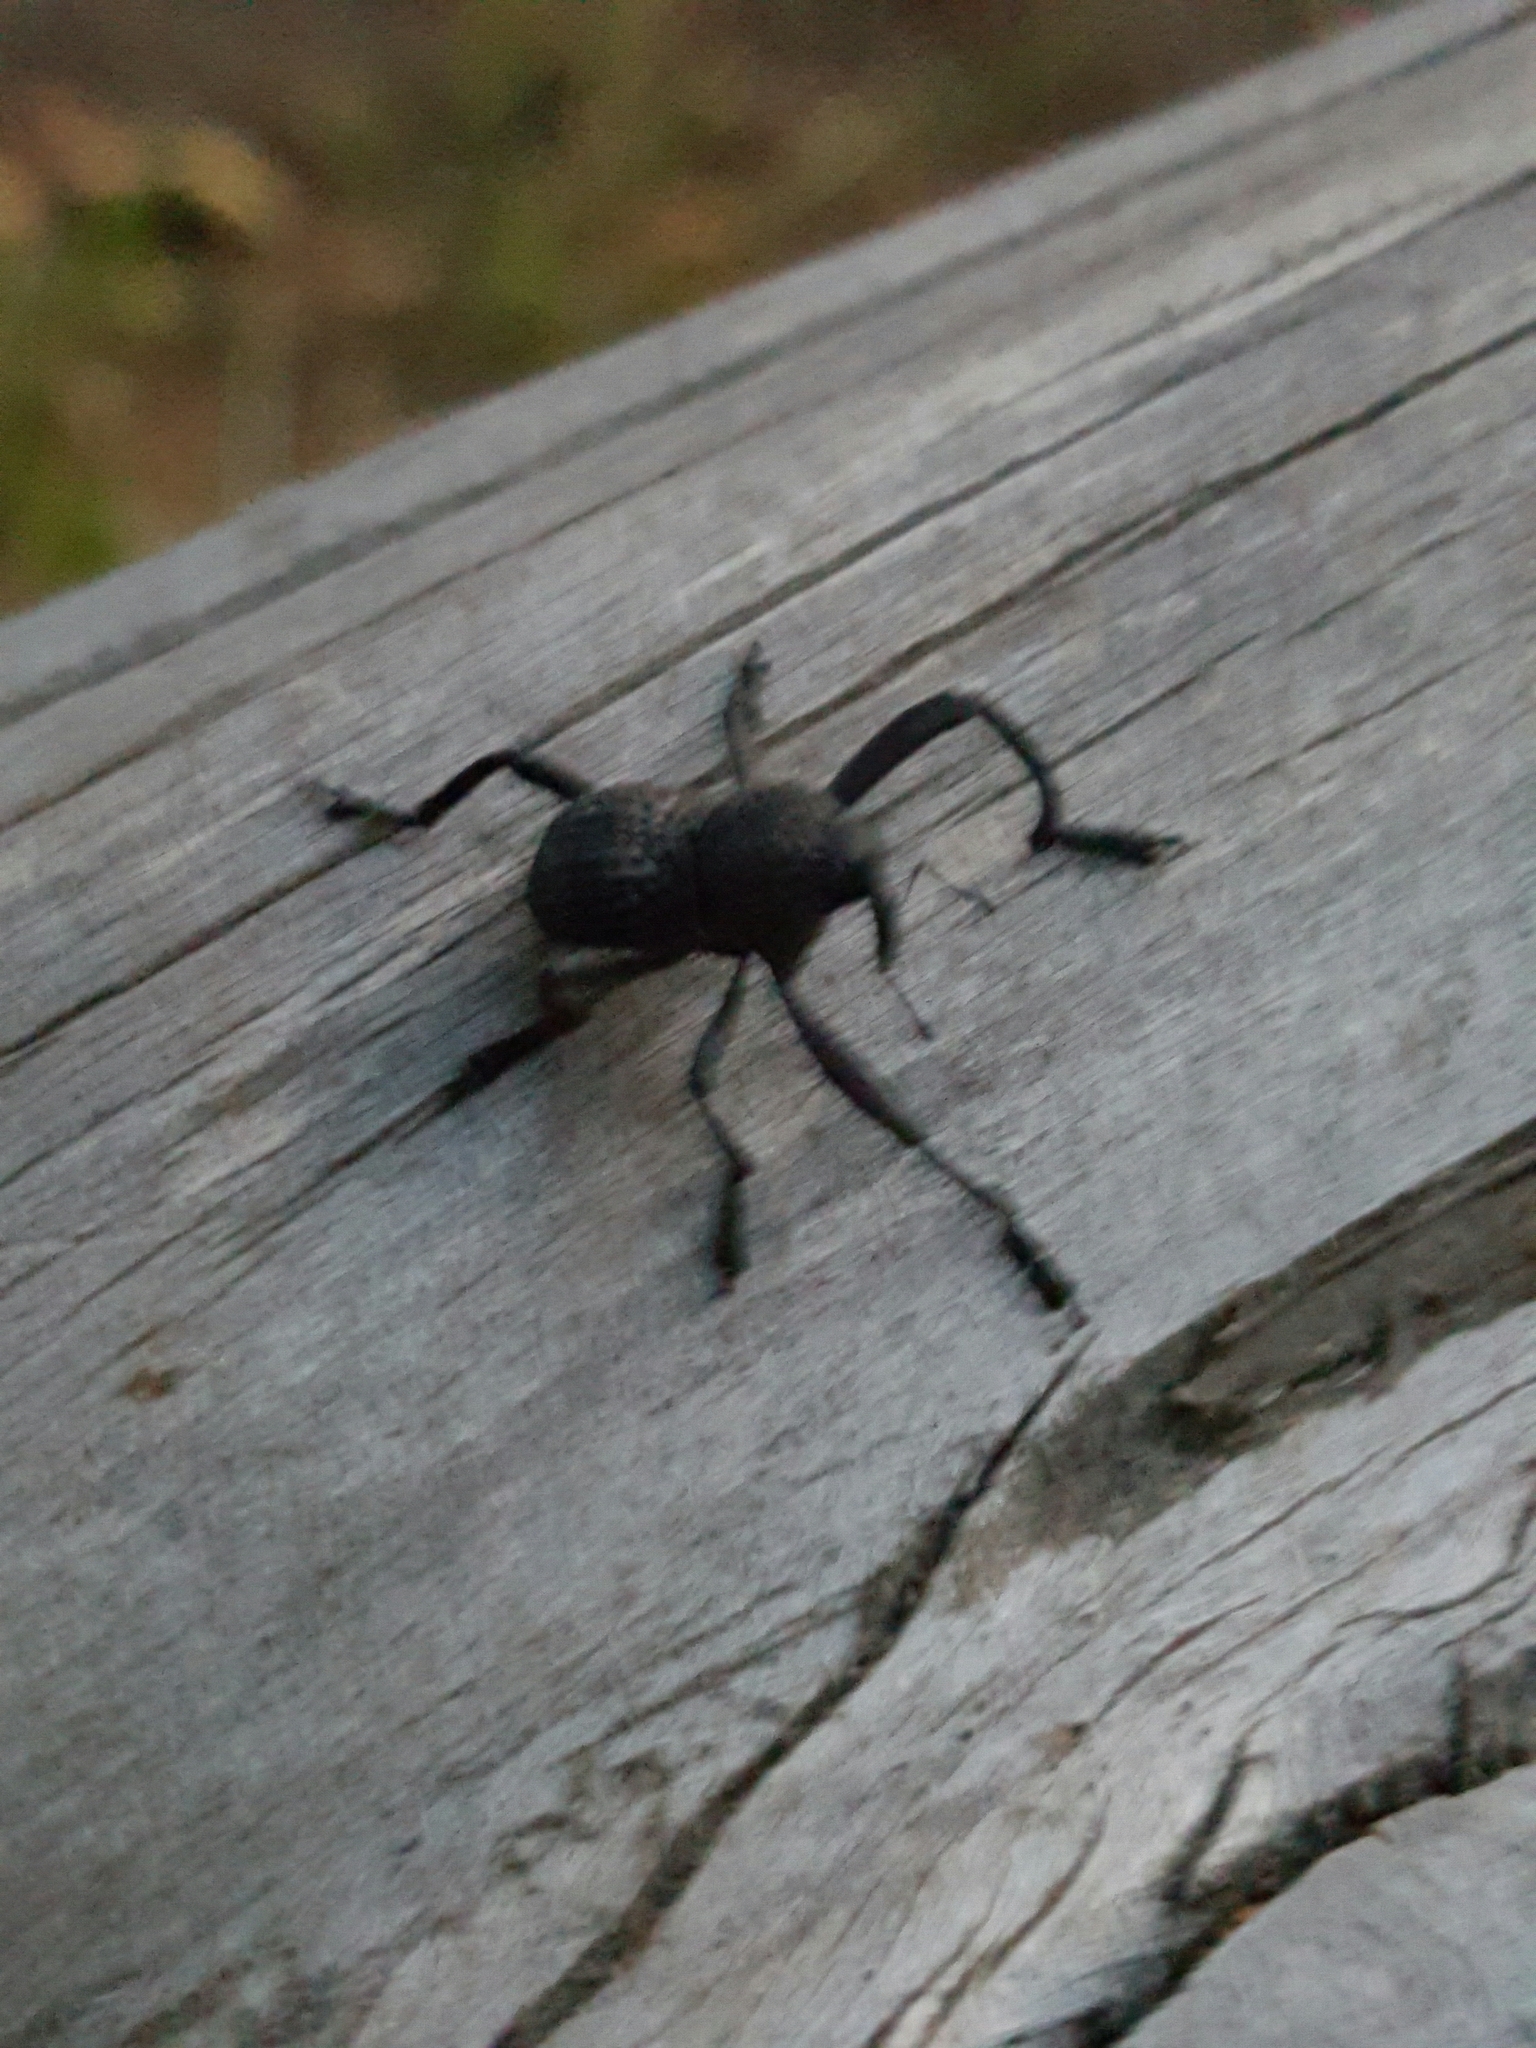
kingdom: Animalia
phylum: Arthropoda
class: Insecta
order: Coleoptera
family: Curculionidae
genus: Rhyephenes
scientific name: Rhyephenes maillei
